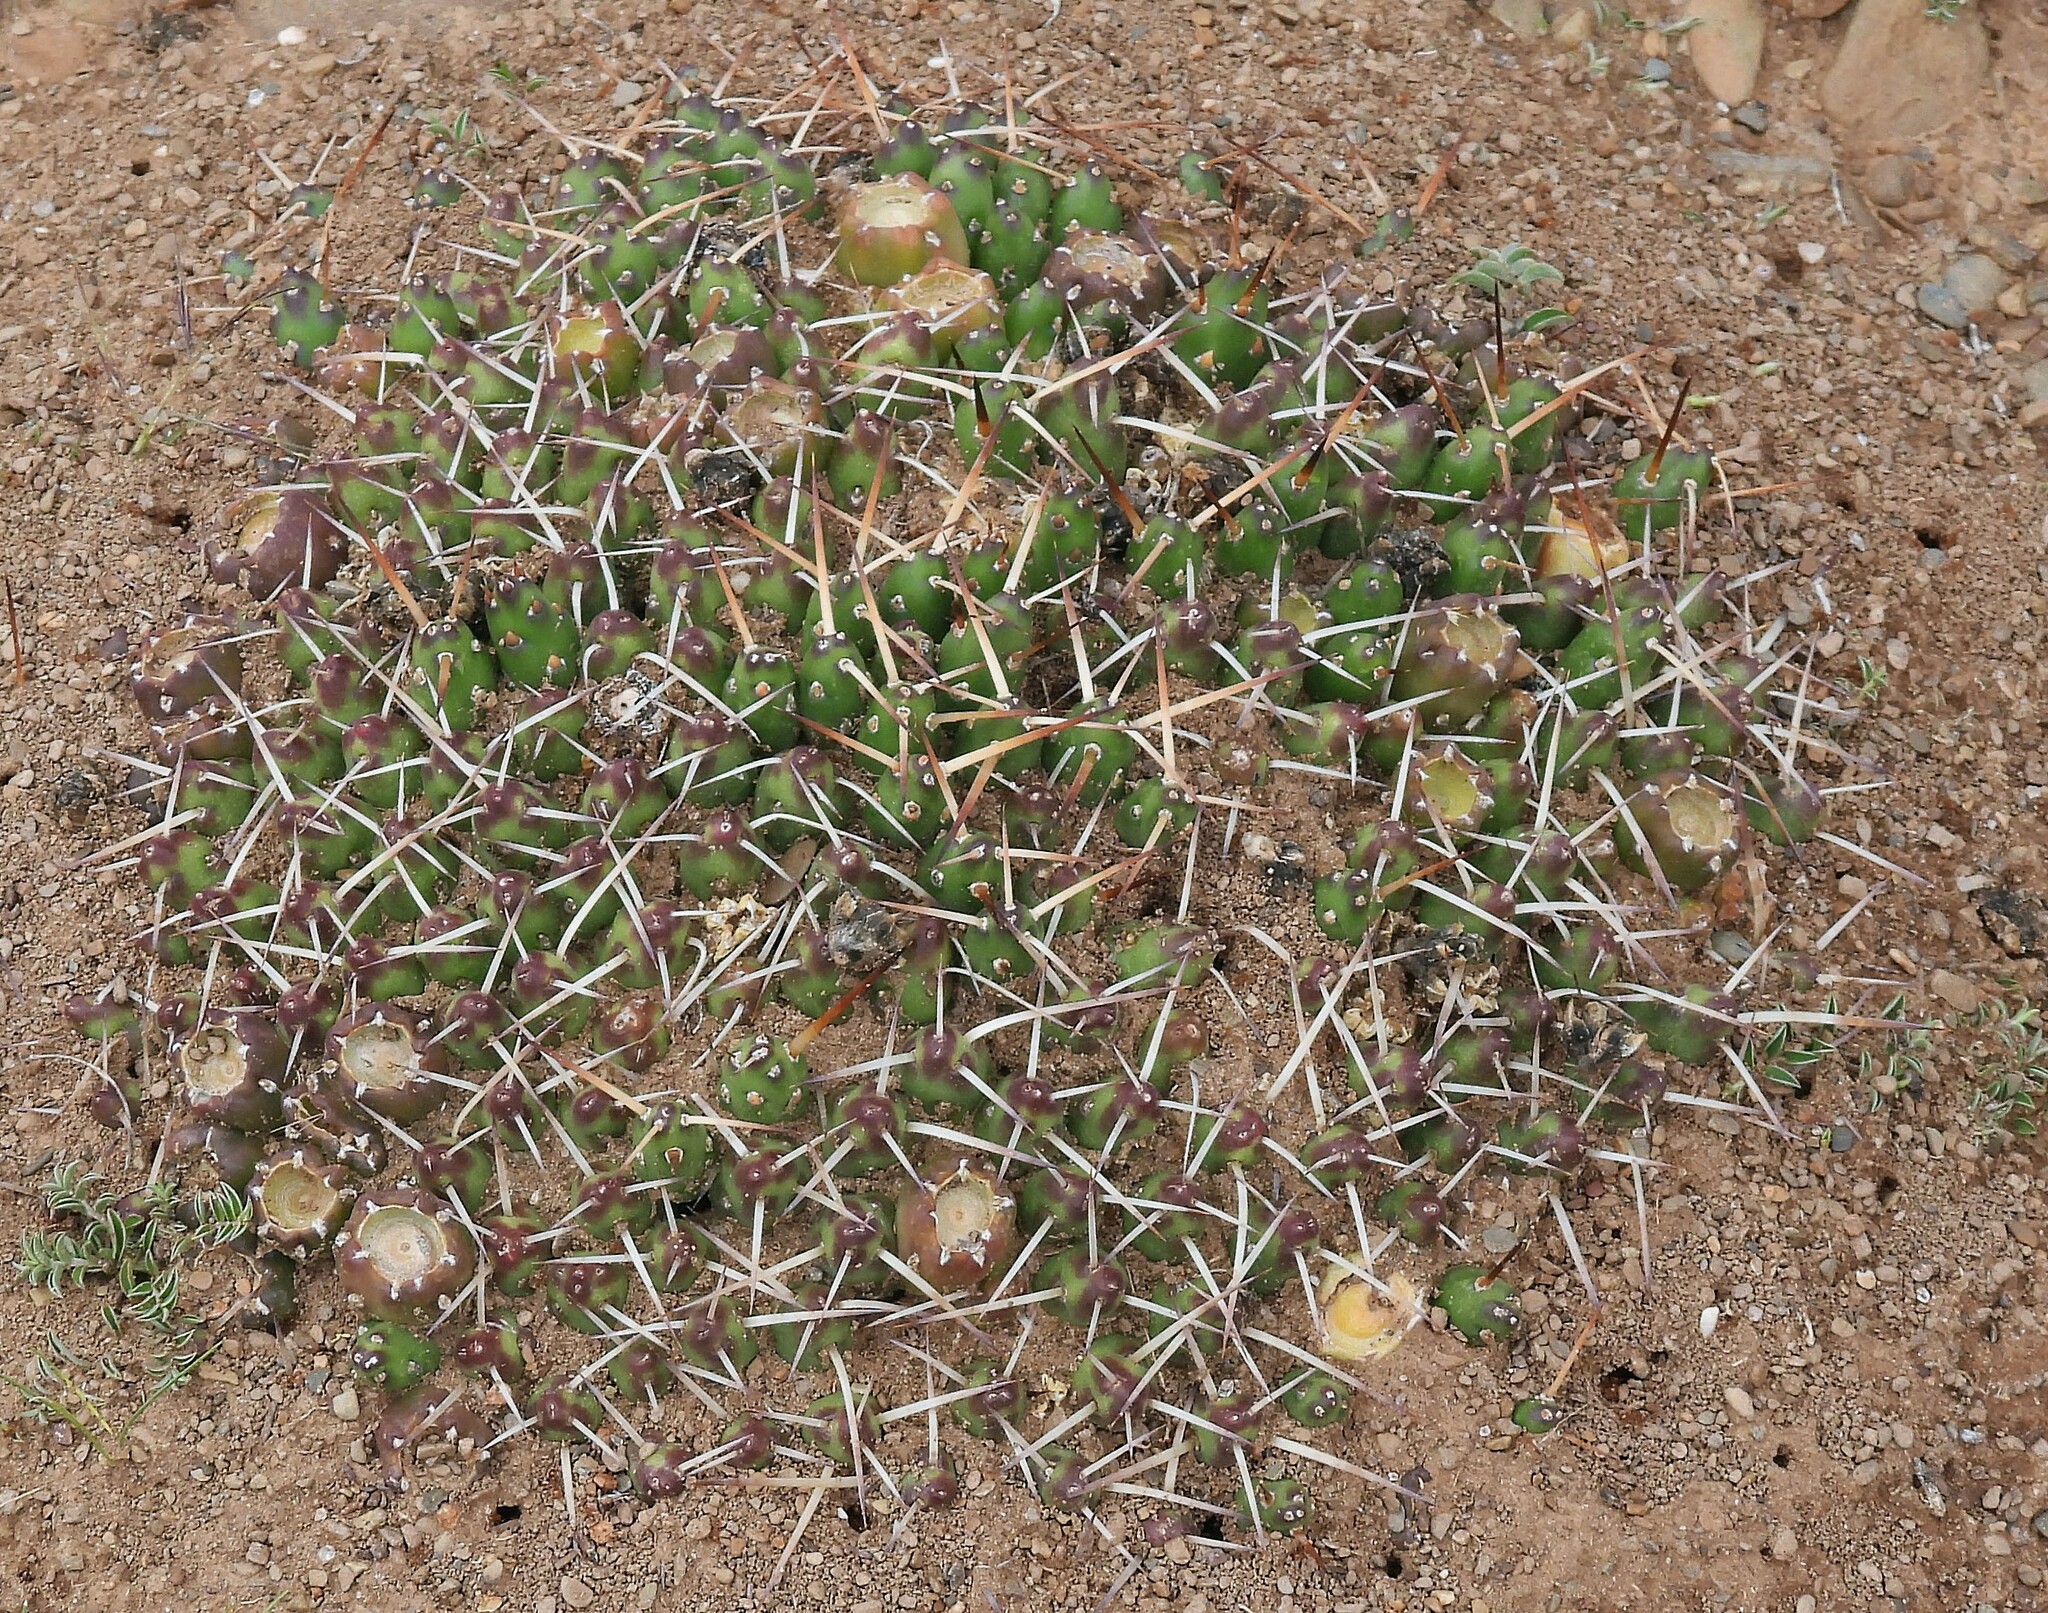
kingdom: Plantae
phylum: Tracheophyta
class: Magnoliopsida
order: Caryophyllales
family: Cactaceae
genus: Maihueniopsis
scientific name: Maihueniopsis glomerata
